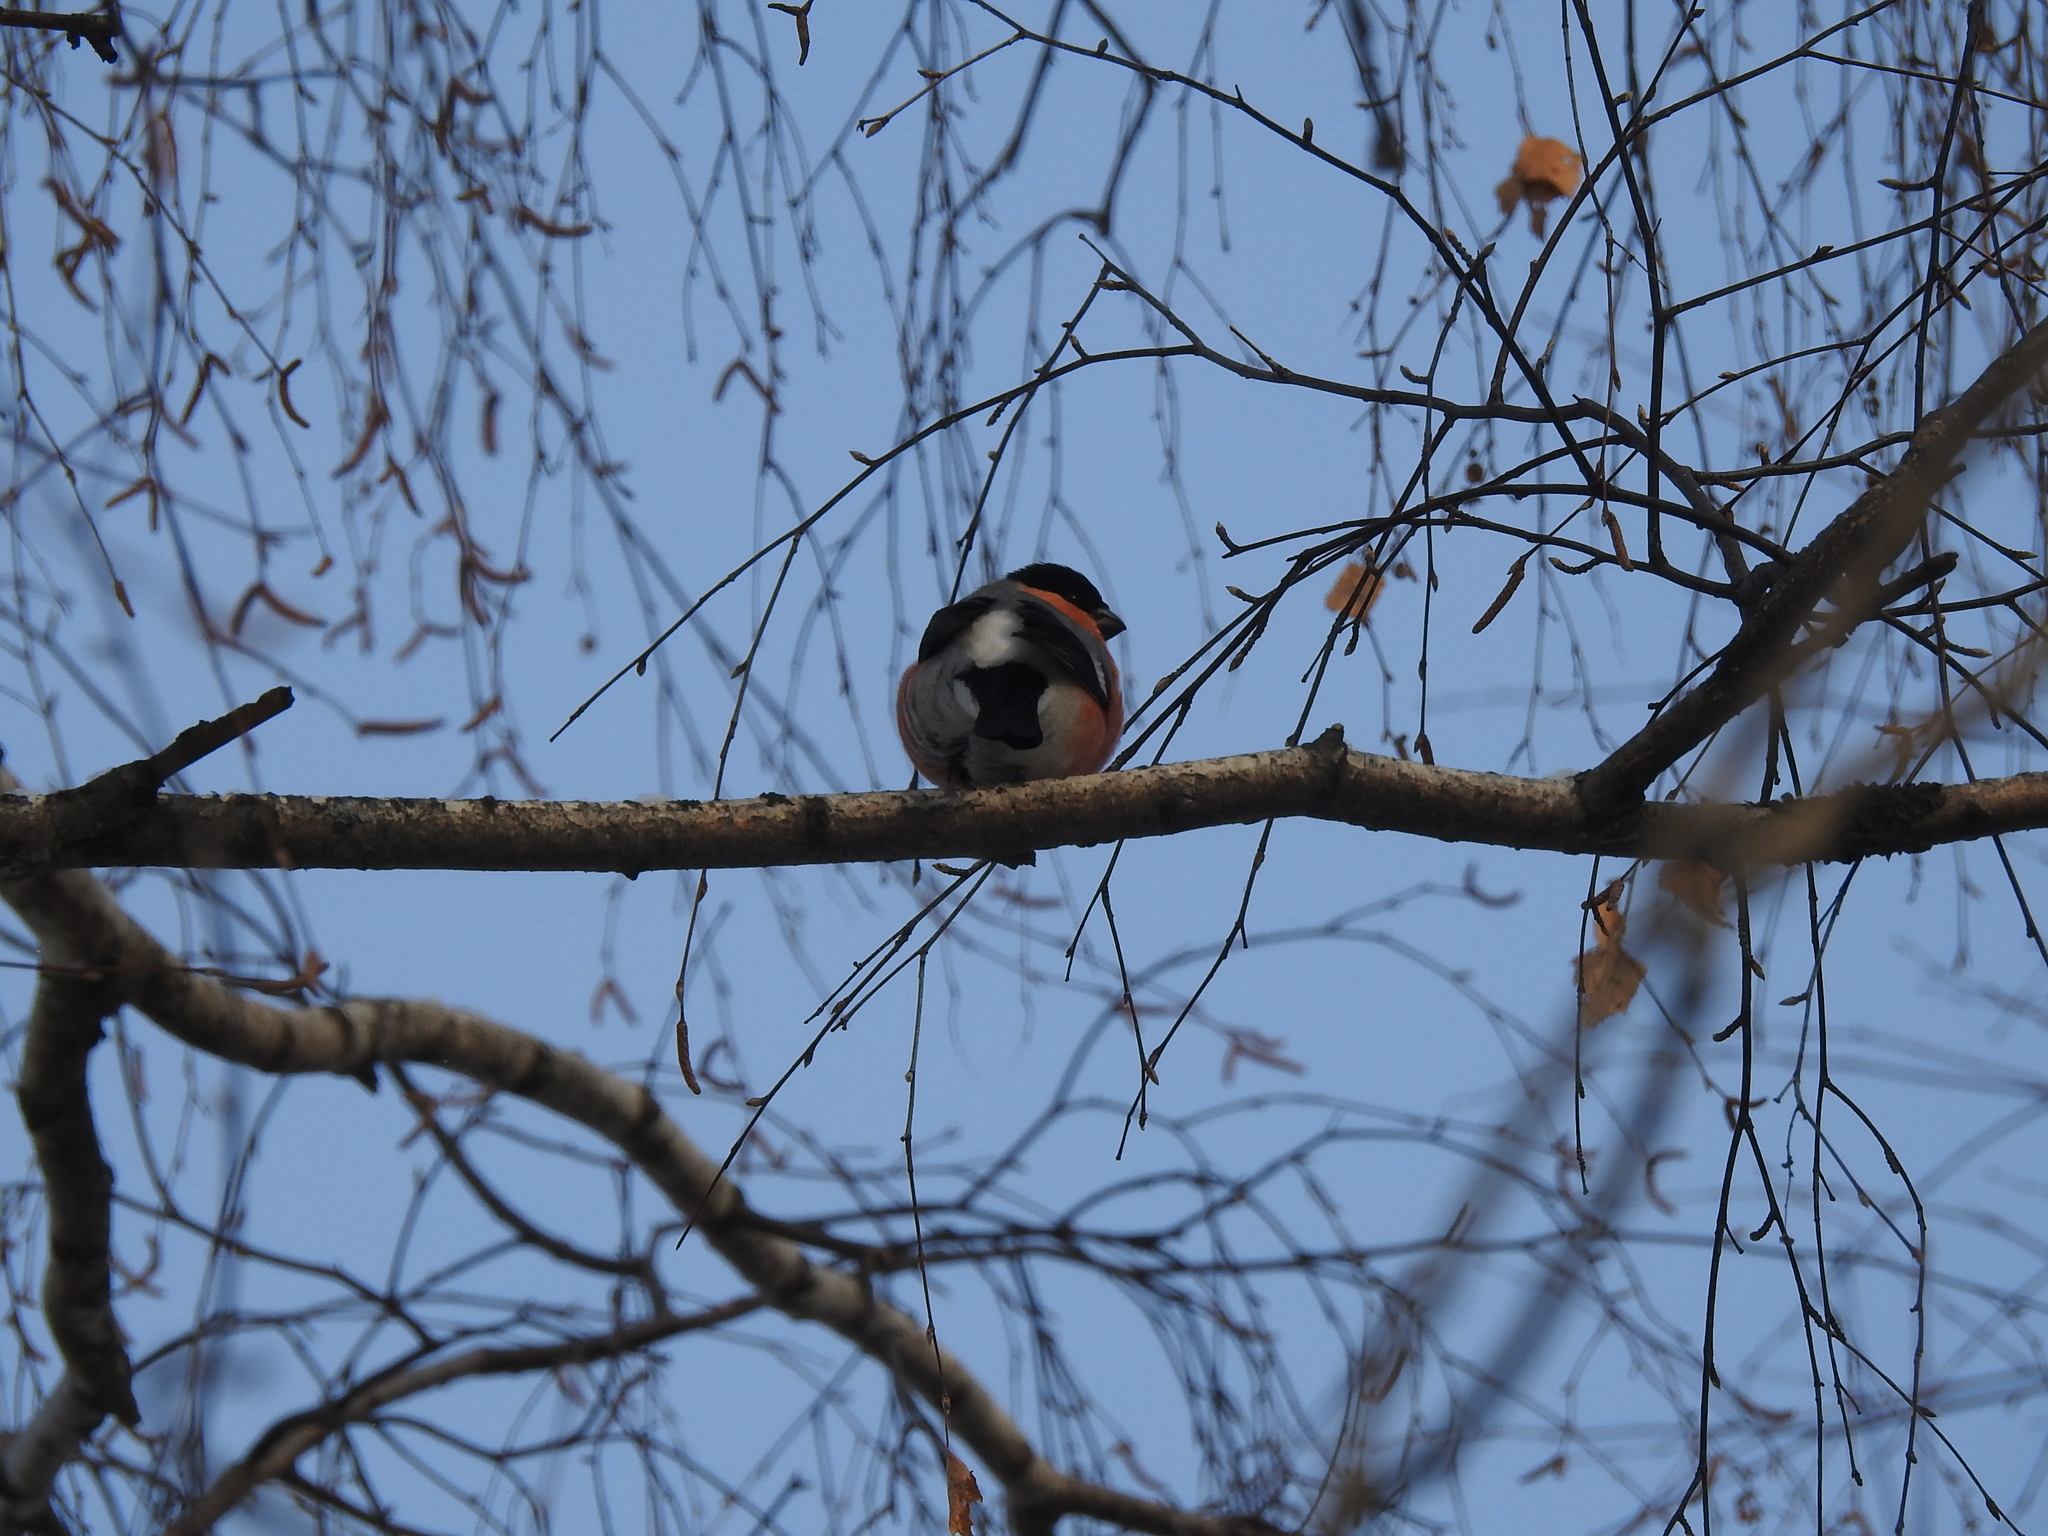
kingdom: Animalia
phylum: Chordata
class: Aves
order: Passeriformes
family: Fringillidae
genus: Pyrrhula
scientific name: Pyrrhula pyrrhula
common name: Eurasian bullfinch
